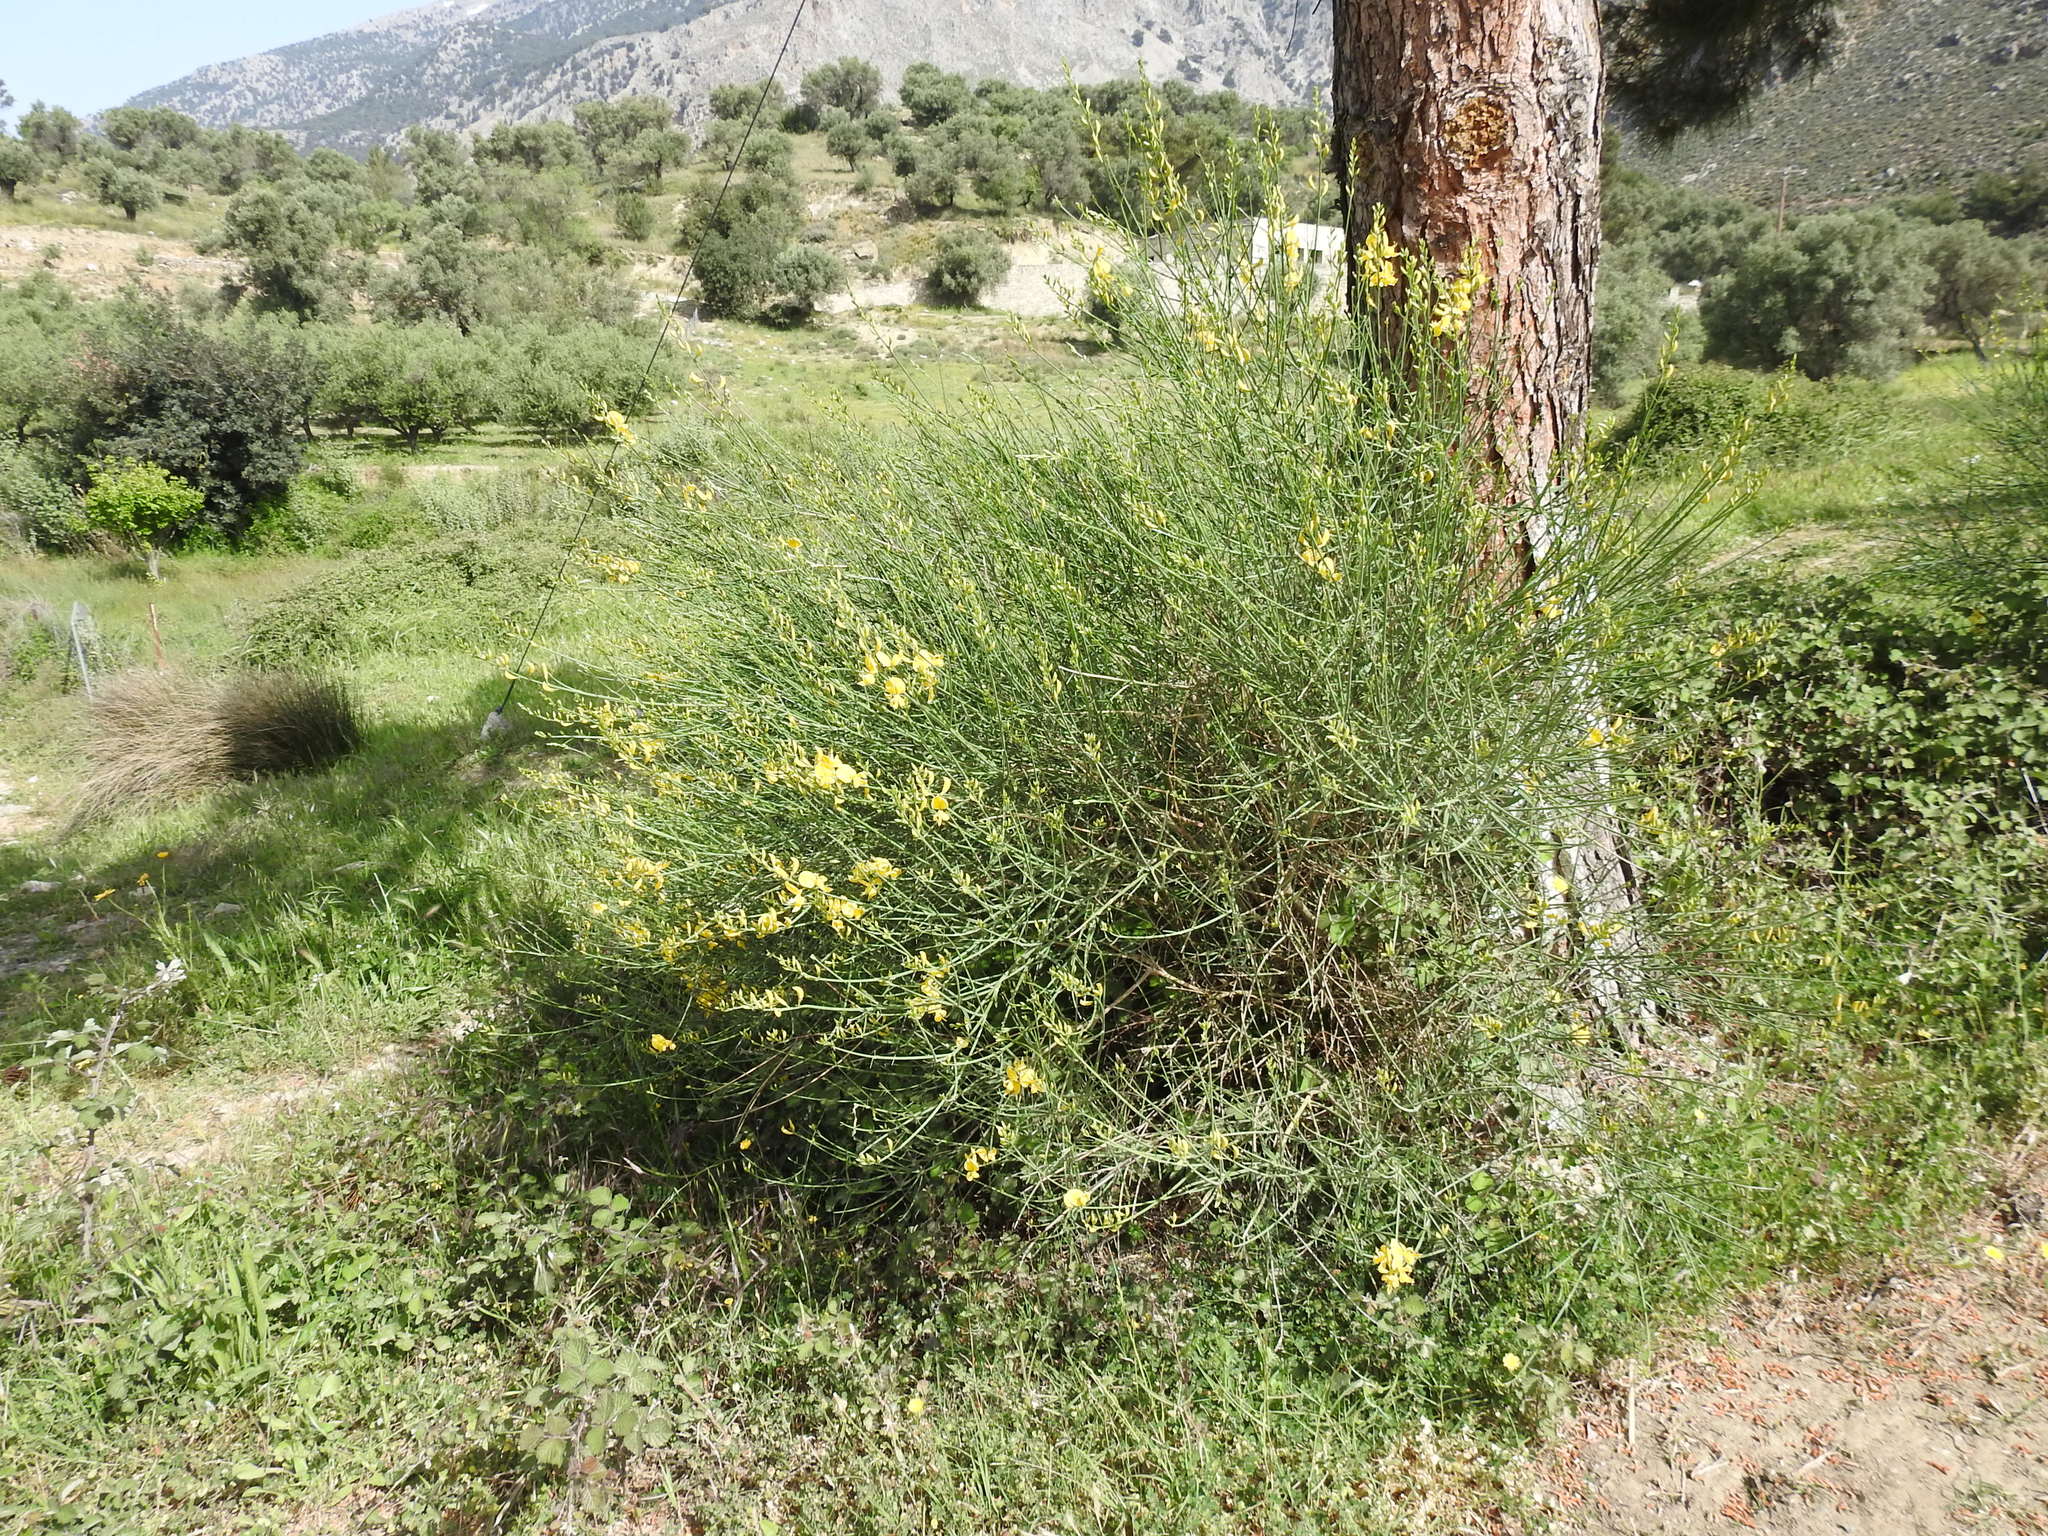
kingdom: Plantae
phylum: Tracheophyta
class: Magnoliopsida
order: Fabales
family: Fabaceae
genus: Spartium
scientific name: Spartium junceum
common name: Spanish broom
